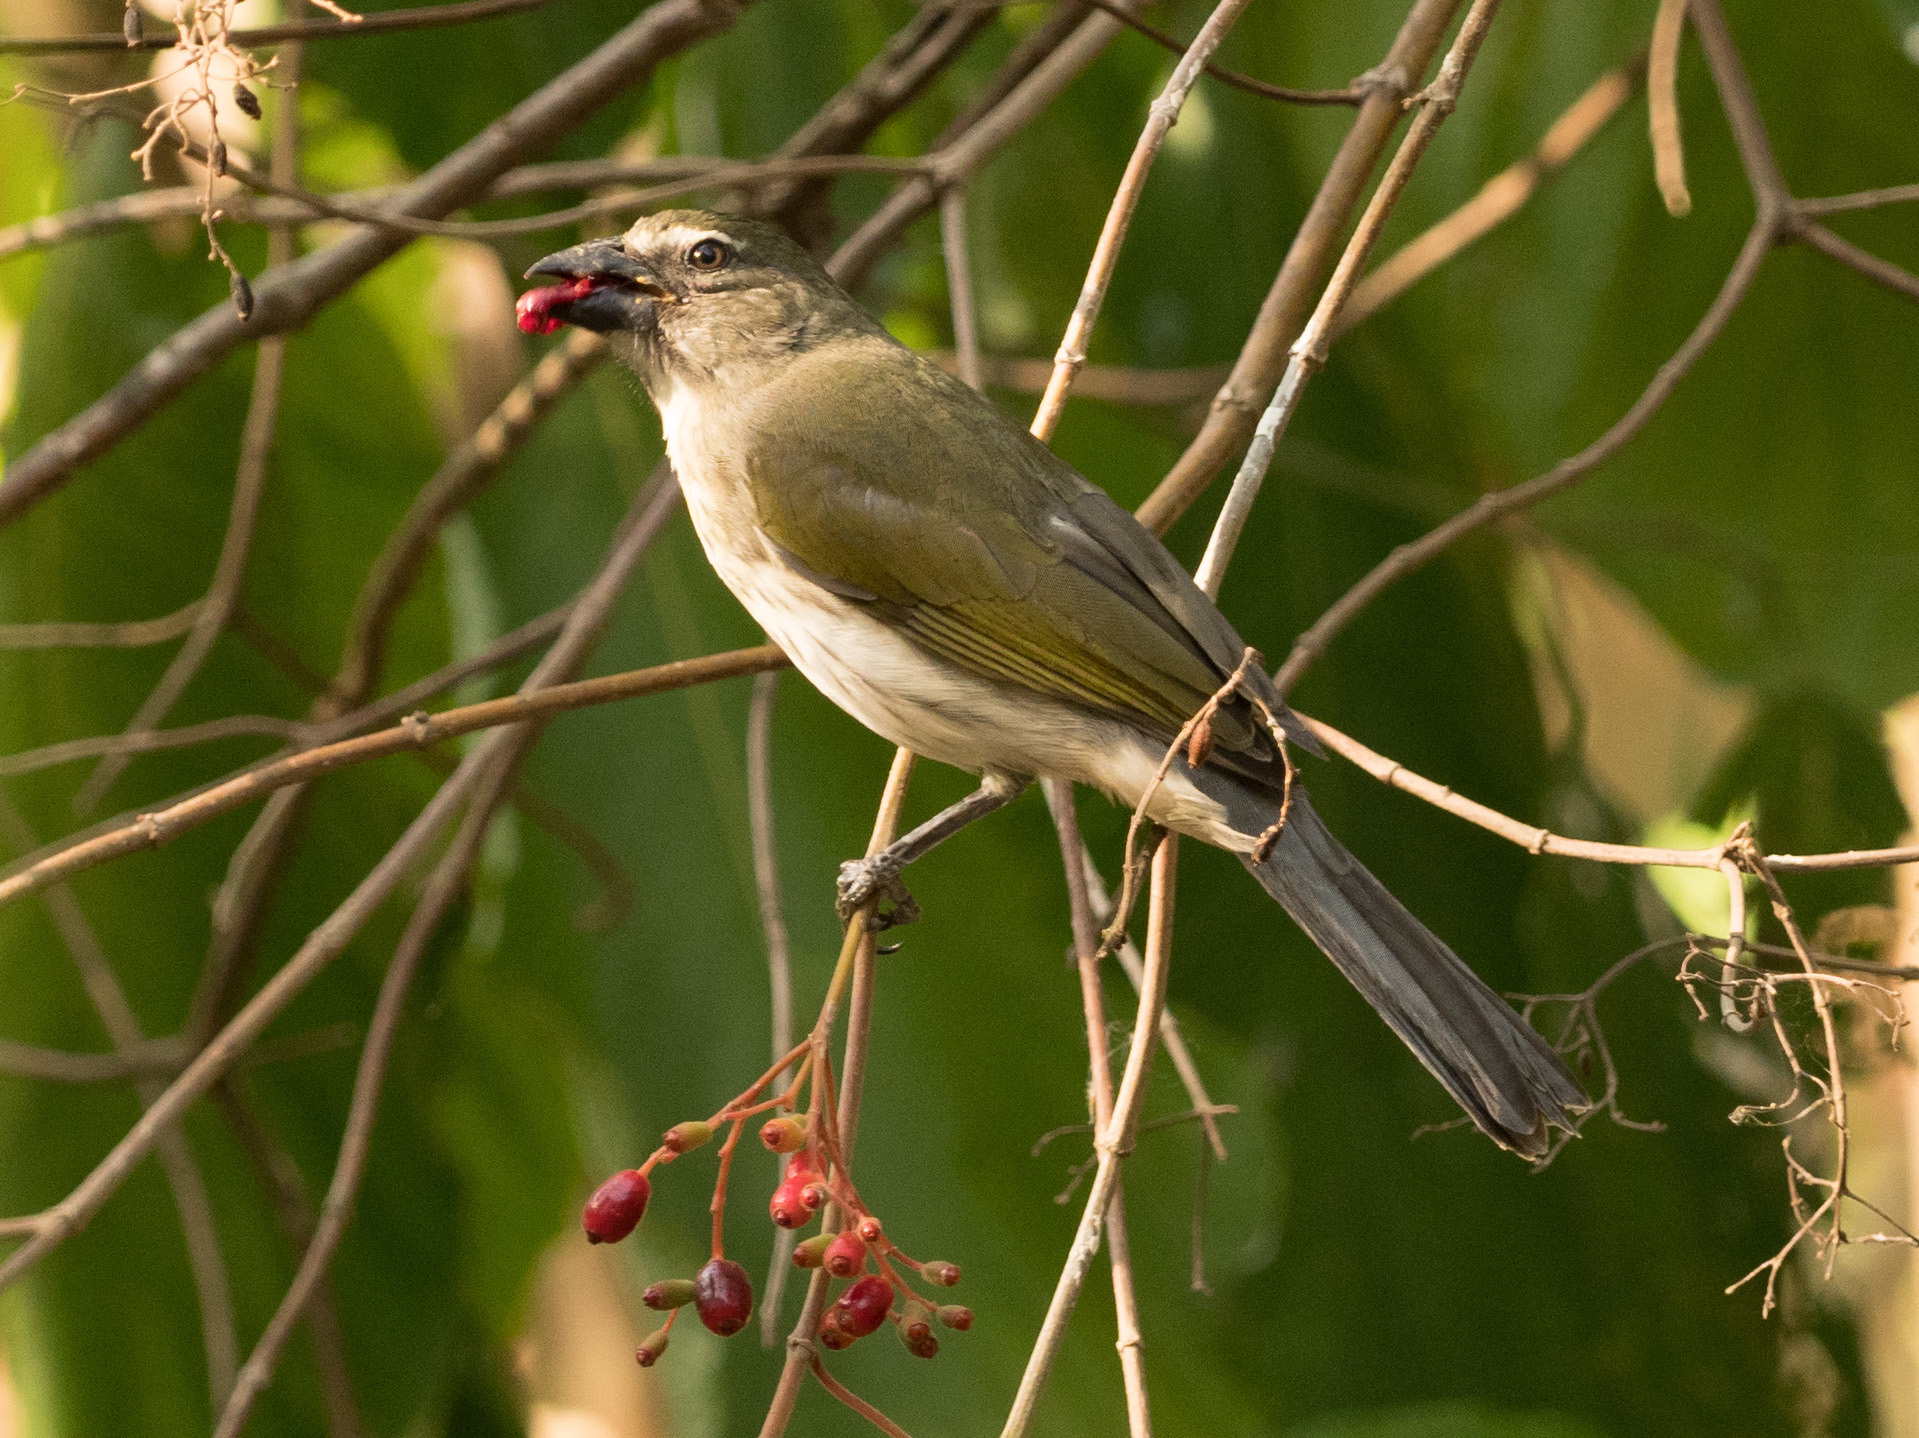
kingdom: Animalia
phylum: Chordata
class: Aves
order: Passeriformes
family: Thraupidae
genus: Saltator
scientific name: Saltator striatipectus
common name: Streaked saltator
